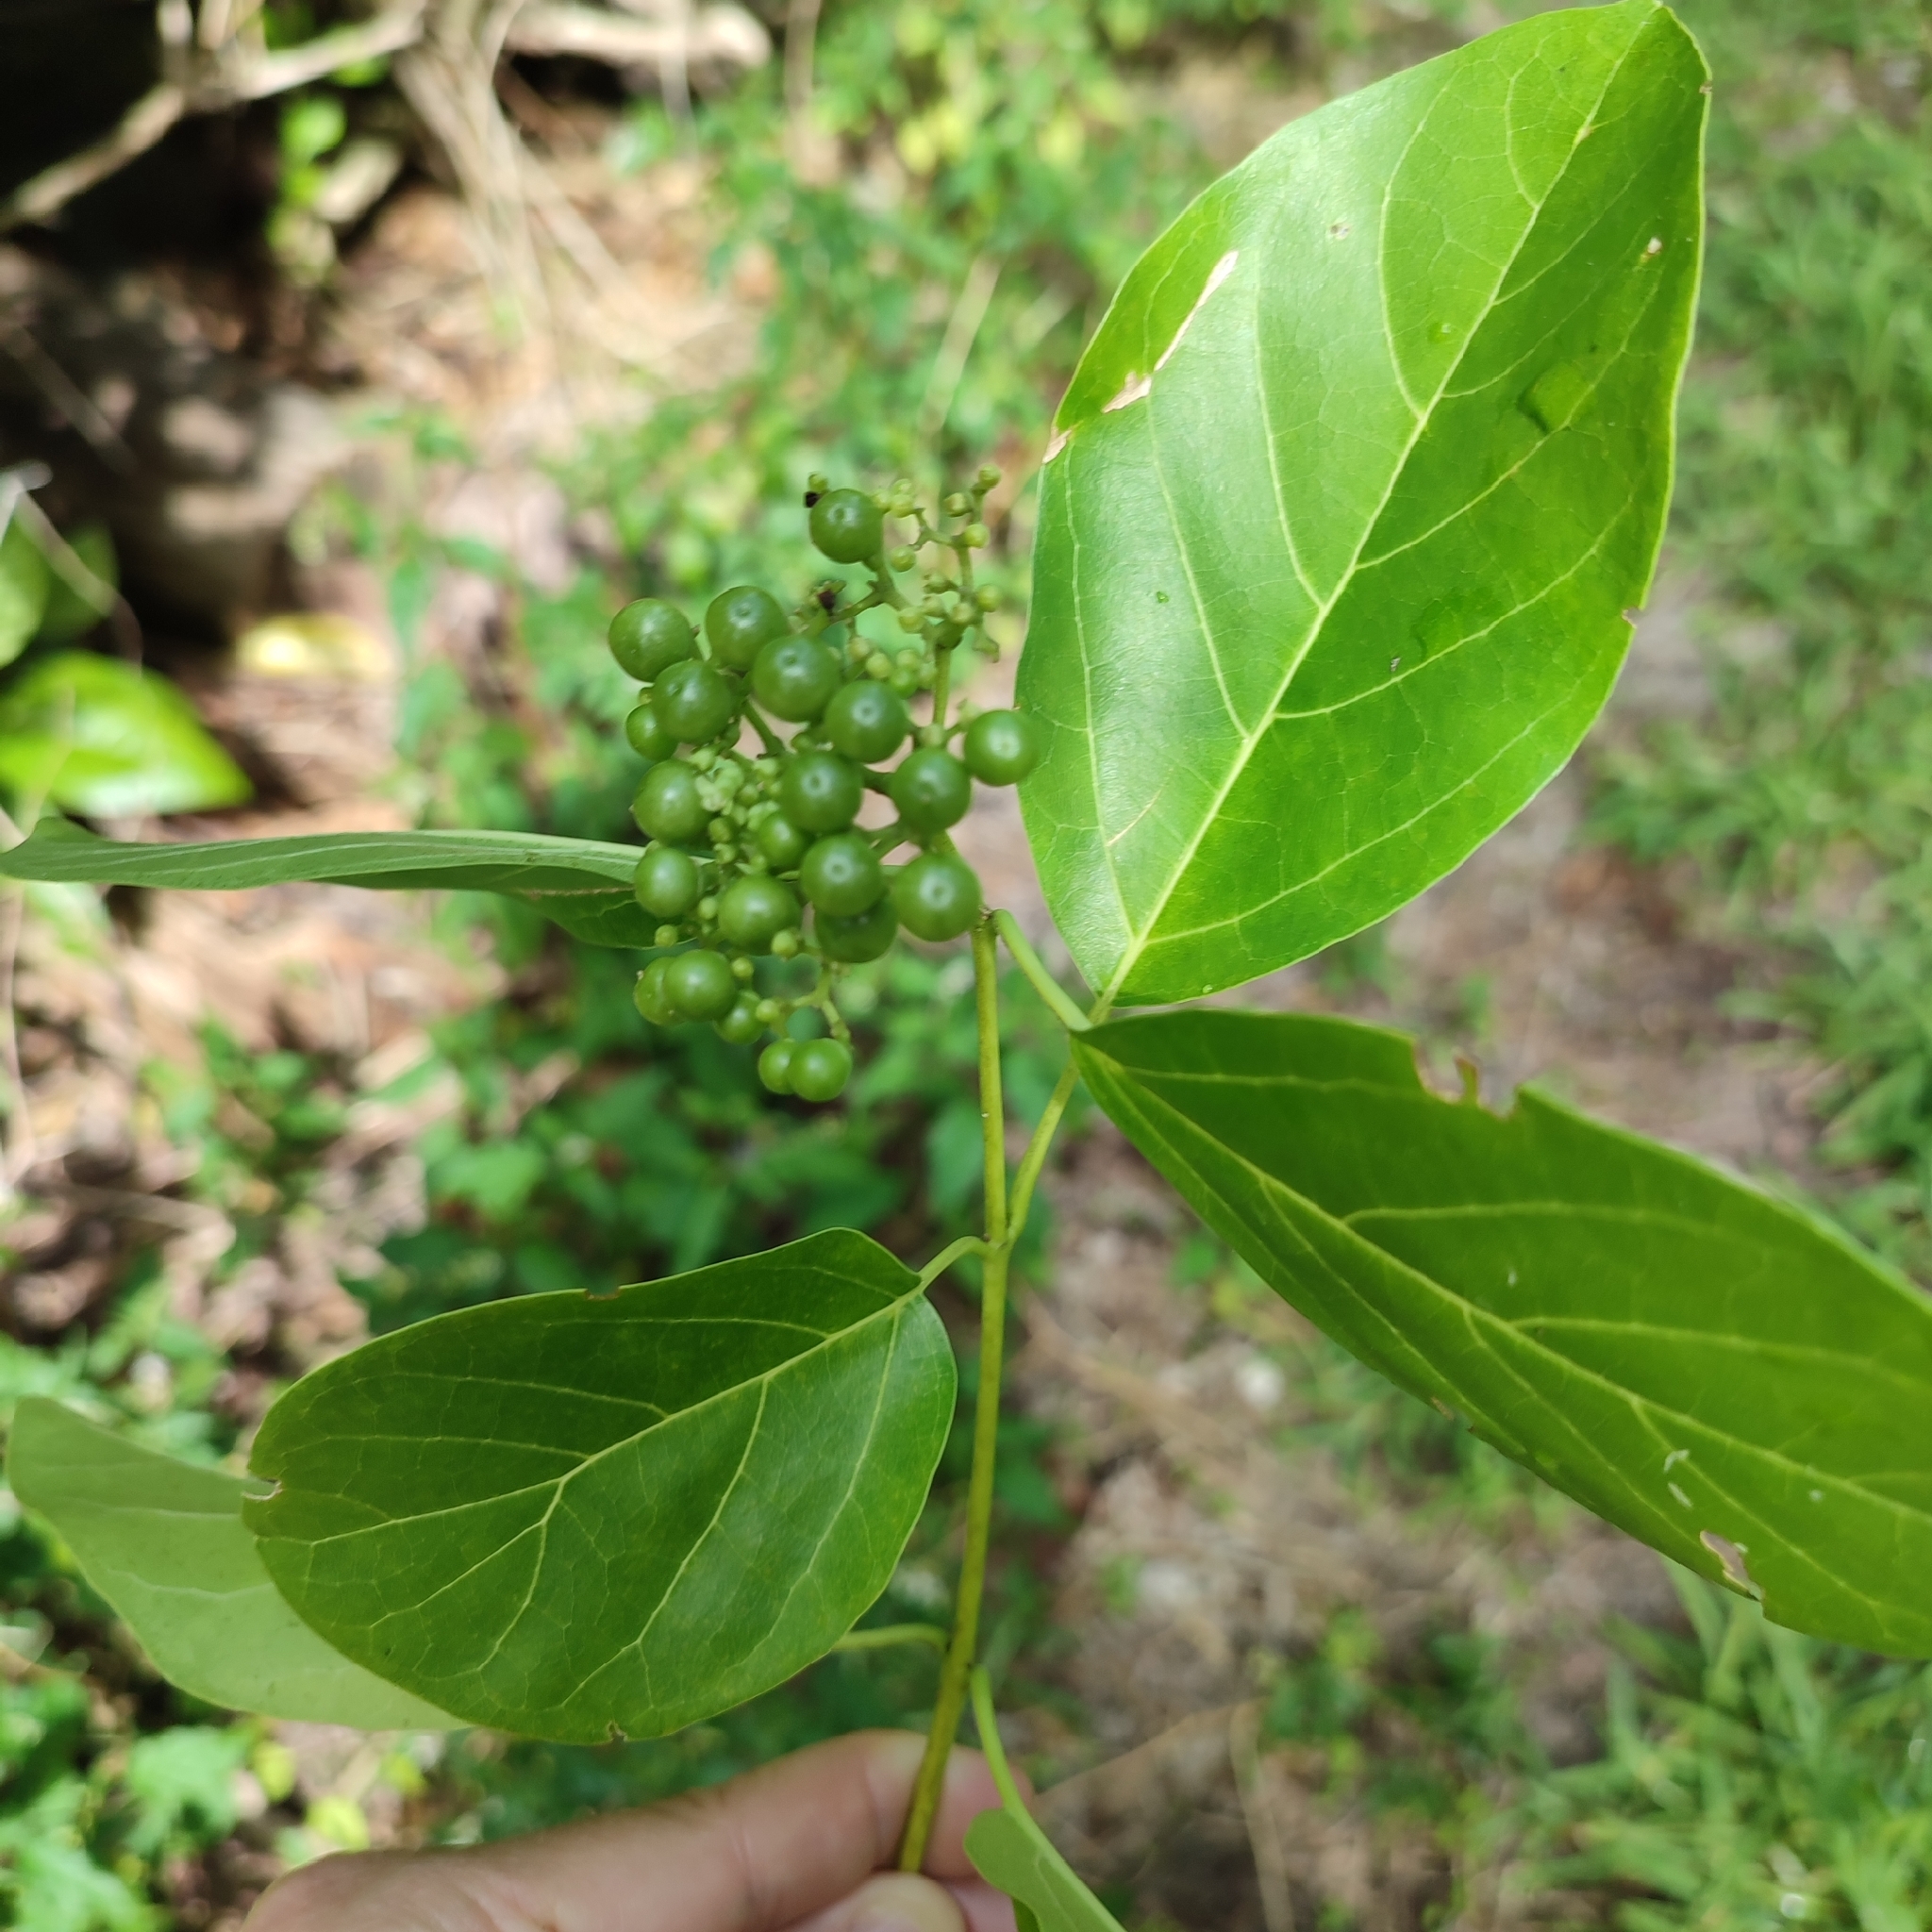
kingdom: Plantae
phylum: Tracheophyta
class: Magnoliopsida
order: Lamiales
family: Lamiaceae
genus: Premna
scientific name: Premna serratifolia
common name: Bastard guelder
